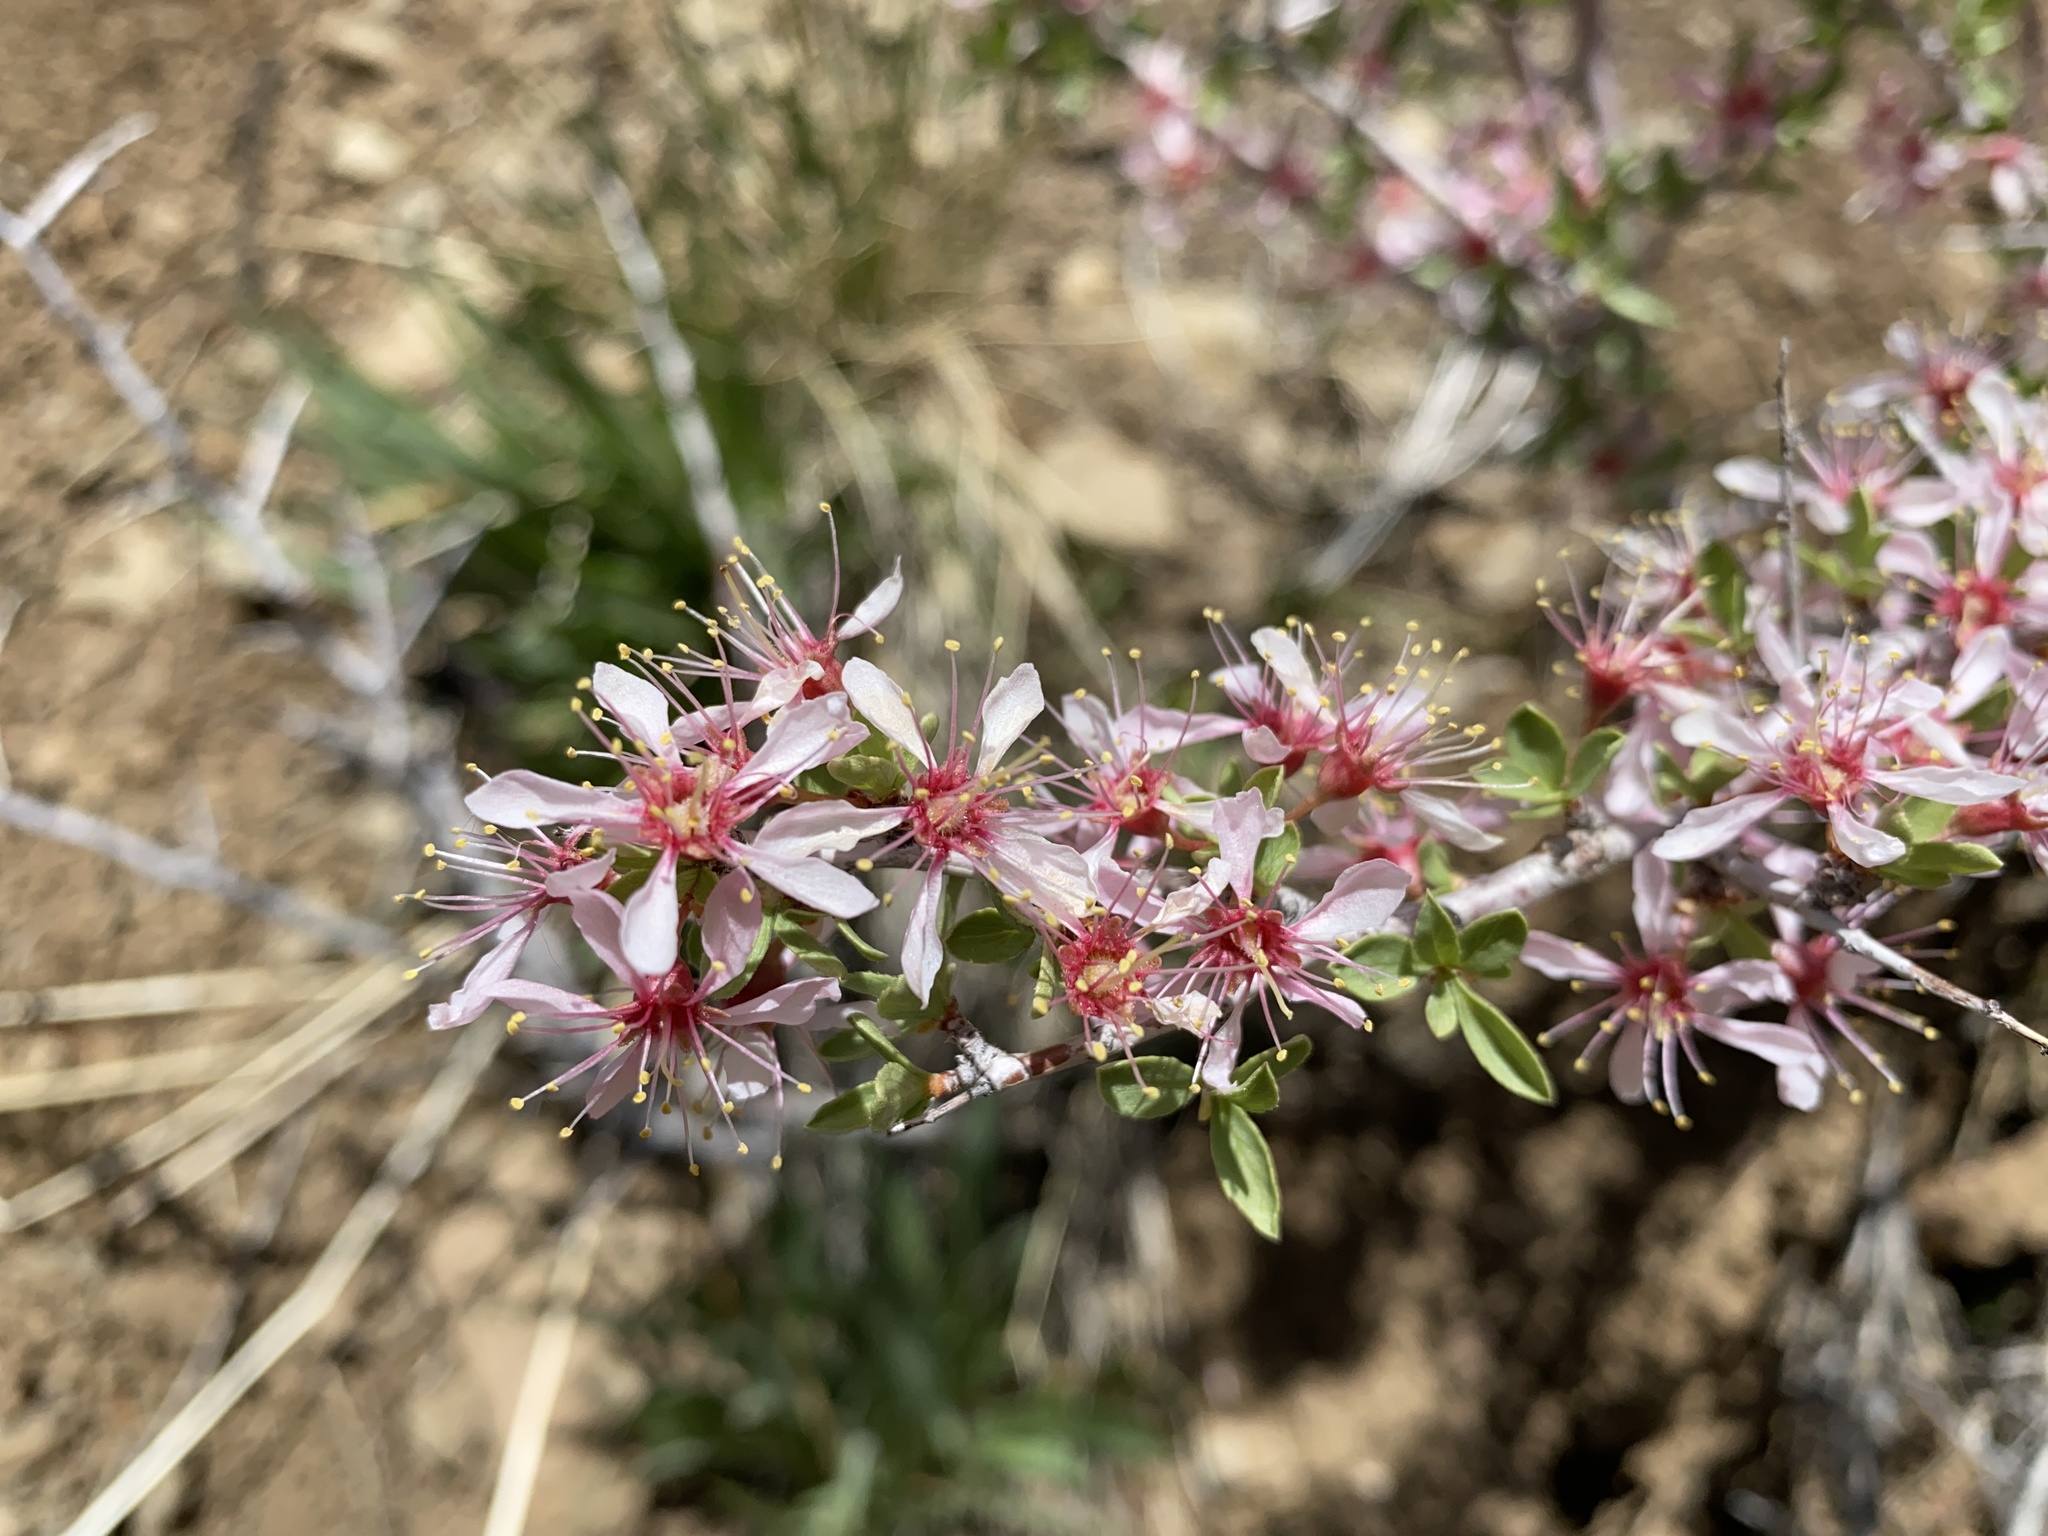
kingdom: Plantae
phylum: Tracheophyta
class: Magnoliopsida
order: Rosales
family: Rosaceae
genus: Prunus
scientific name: Prunus andersonii
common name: Desert peach
